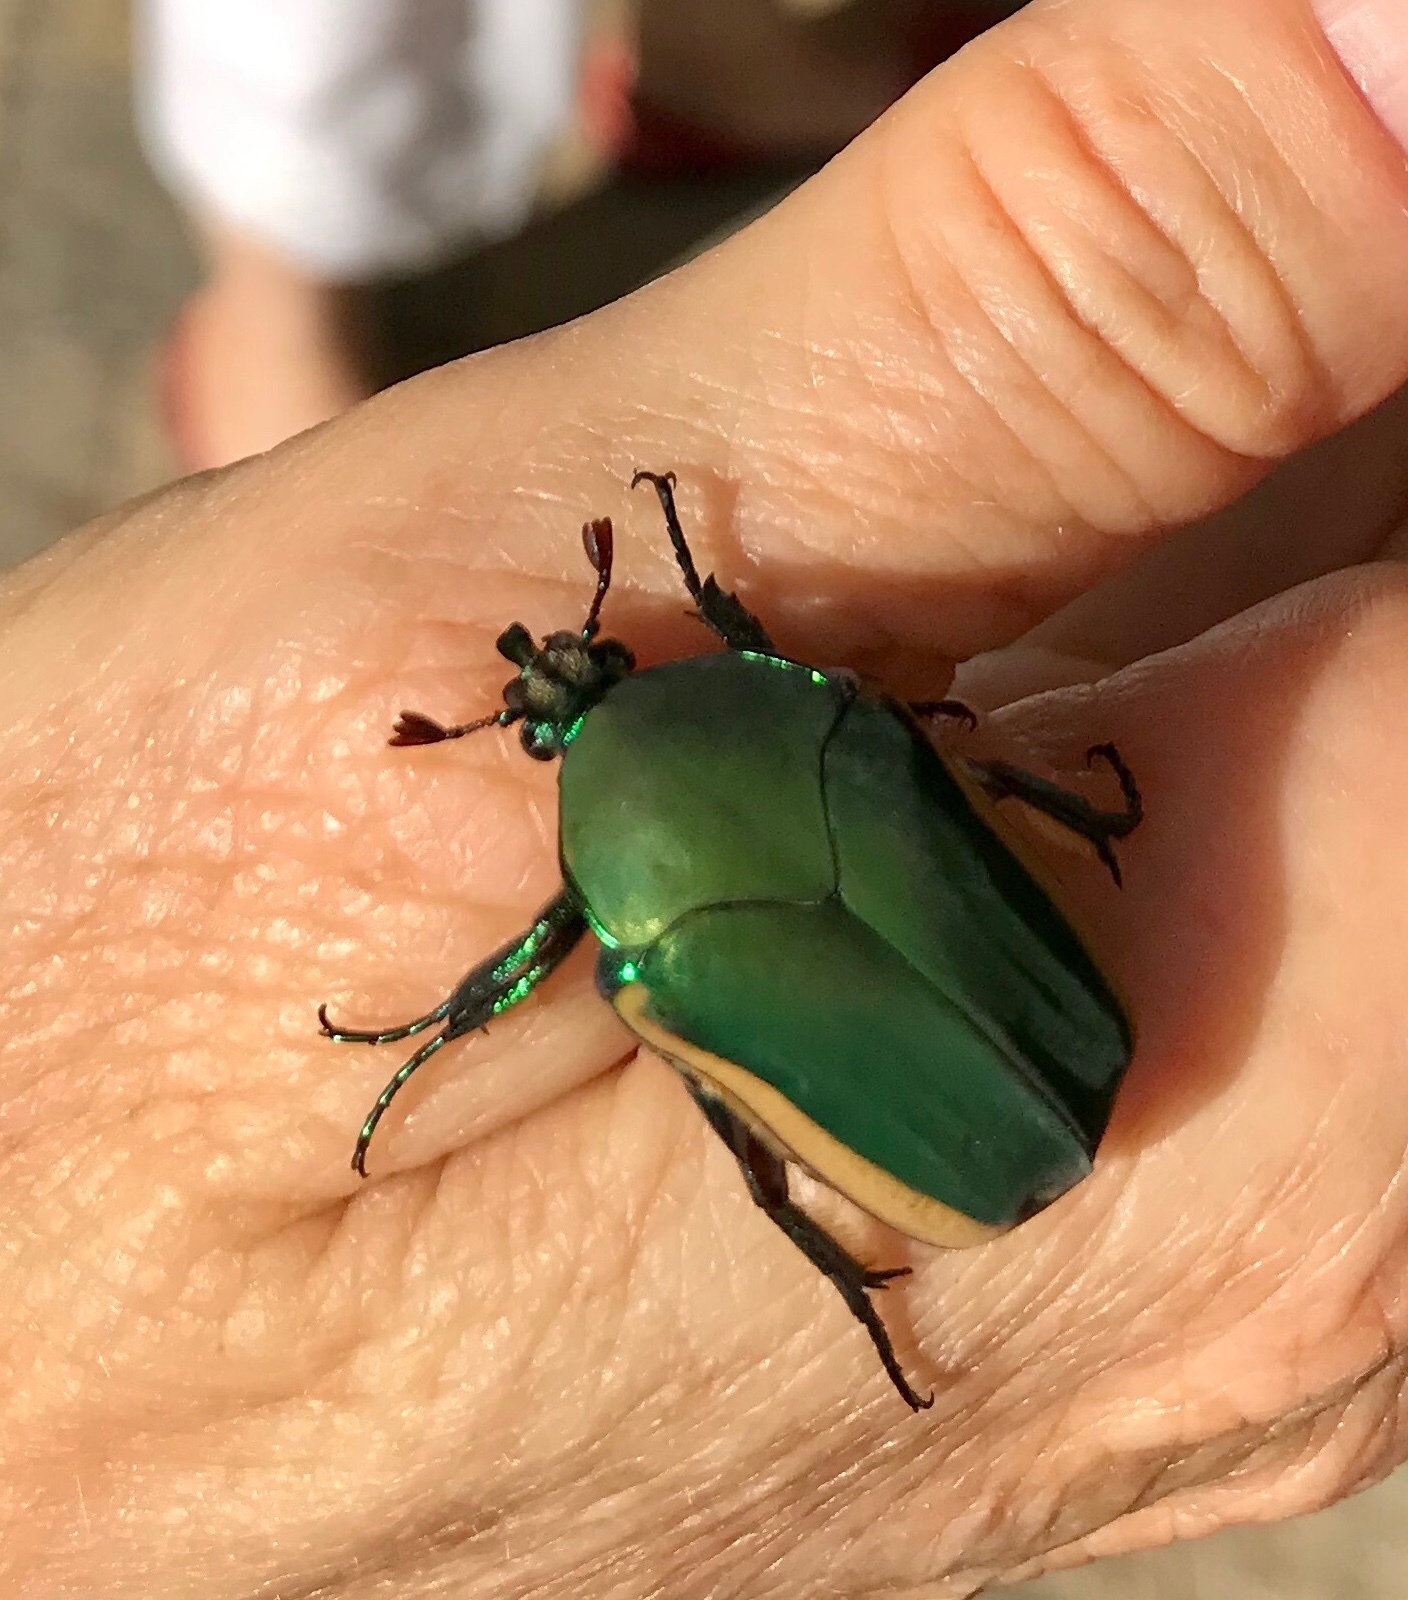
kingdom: Animalia
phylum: Arthropoda
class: Insecta
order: Coleoptera
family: Scarabaeidae
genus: Cotinis
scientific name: Cotinis mutabilis
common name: Figeater beetle
